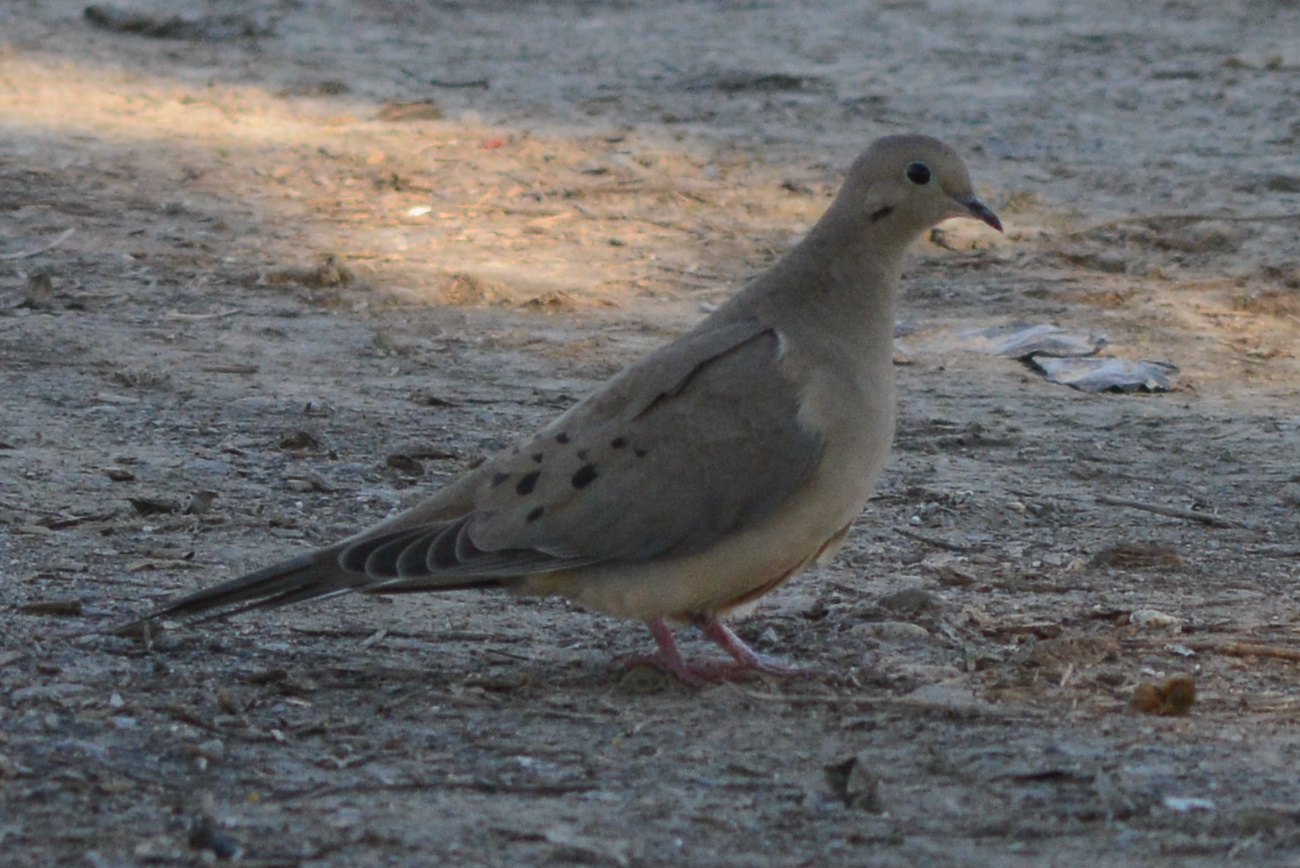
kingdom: Animalia
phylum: Chordata
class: Aves
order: Columbiformes
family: Columbidae
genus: Zenaida
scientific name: Zenaida macroura
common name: Mourning dove
